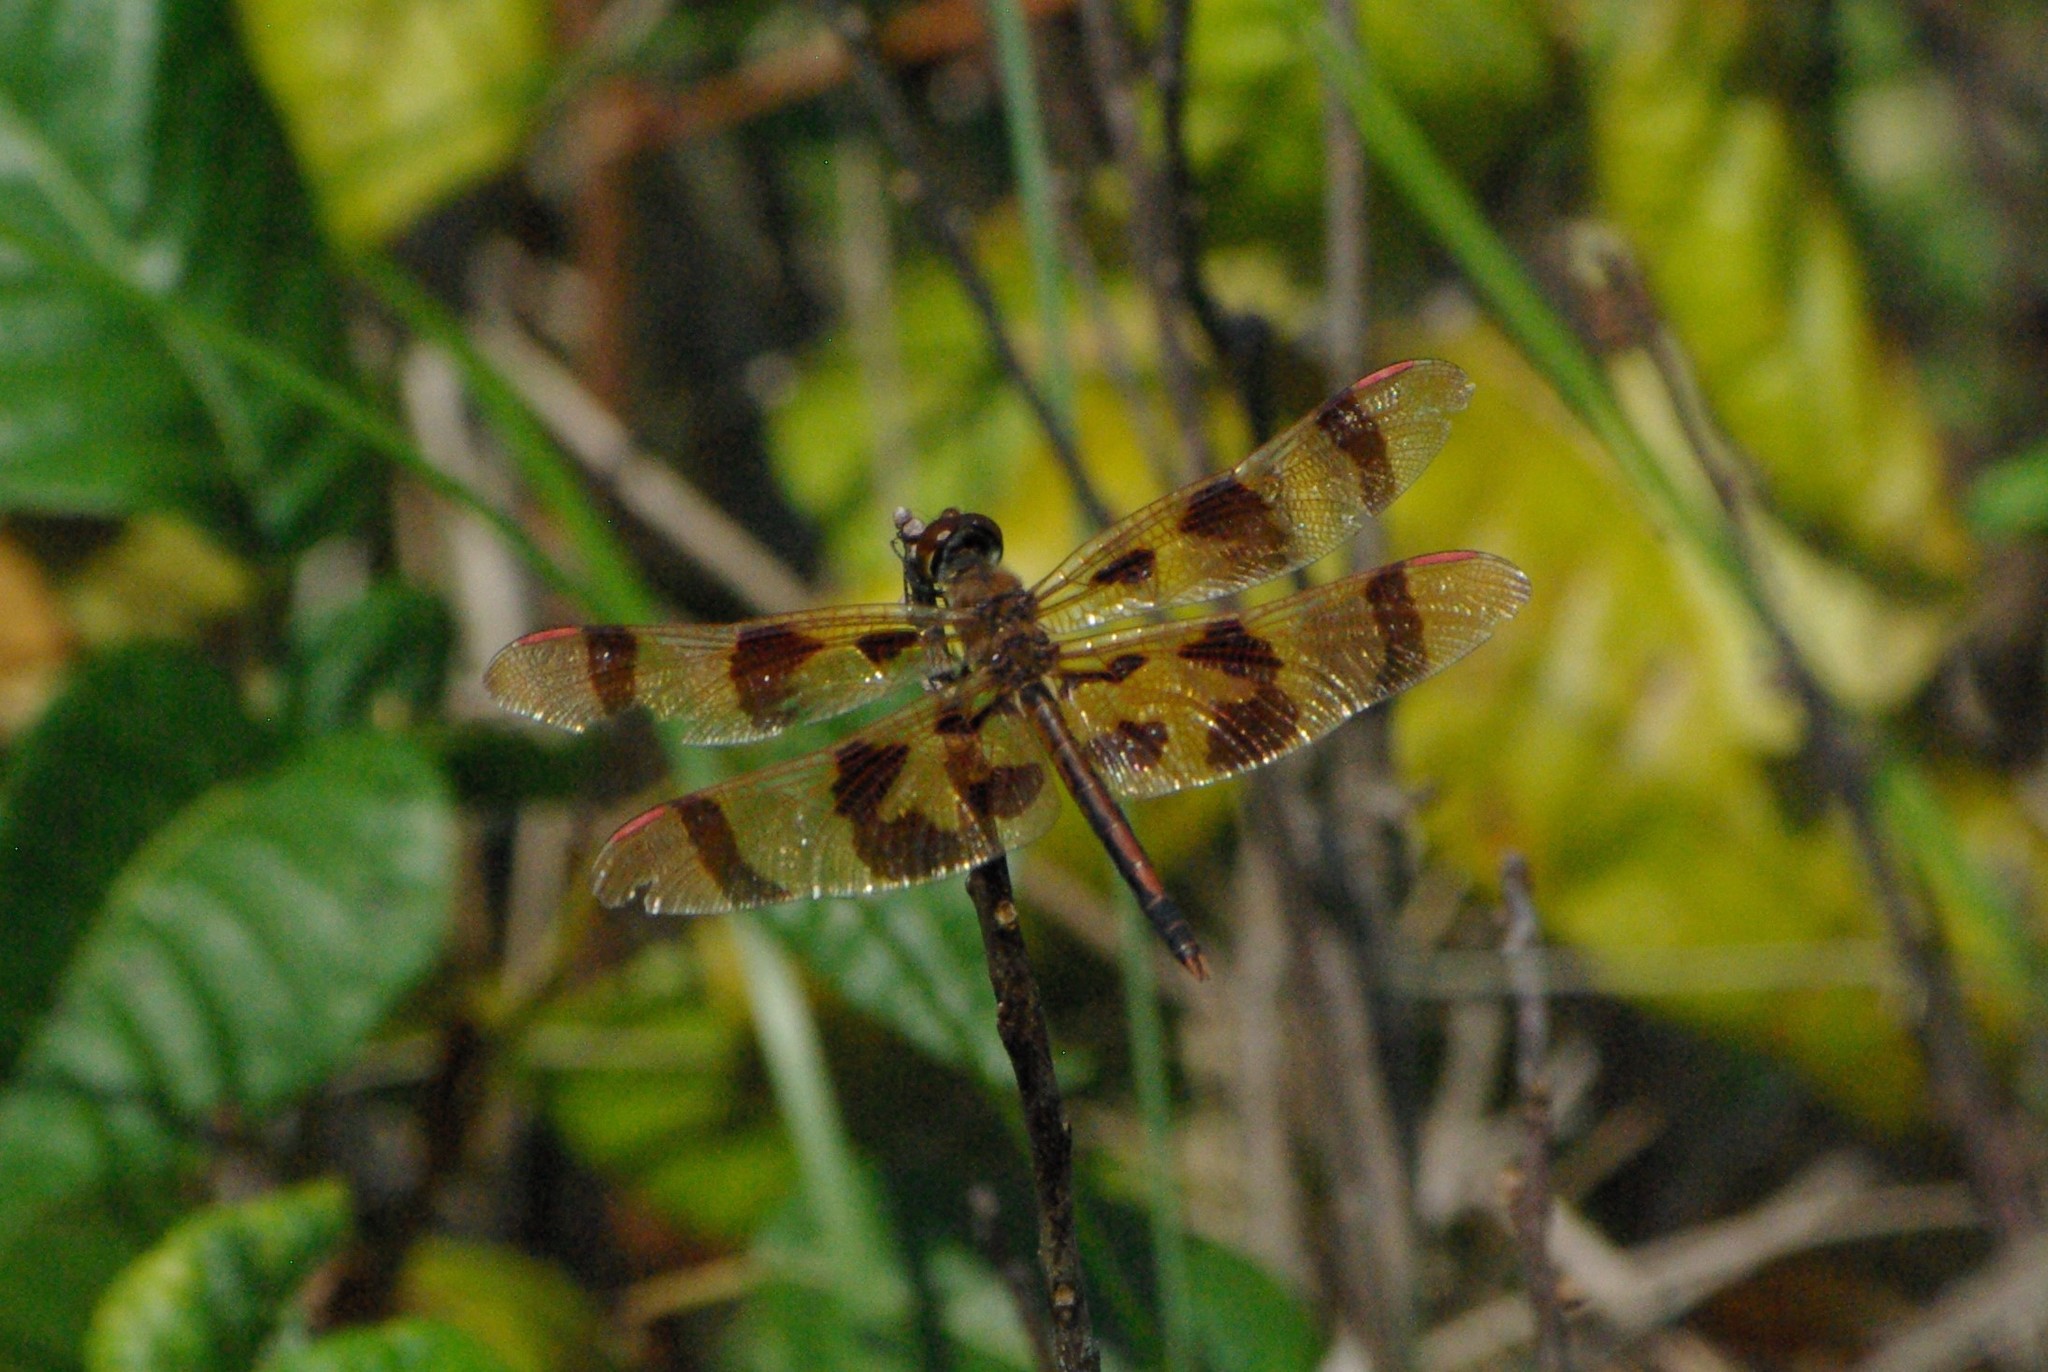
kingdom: Animalia
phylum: Arthropoda
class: Insecta
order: Odonata
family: Libellulidae
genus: Celithemis
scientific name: Celithemis eponina
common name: Halloween pennant
